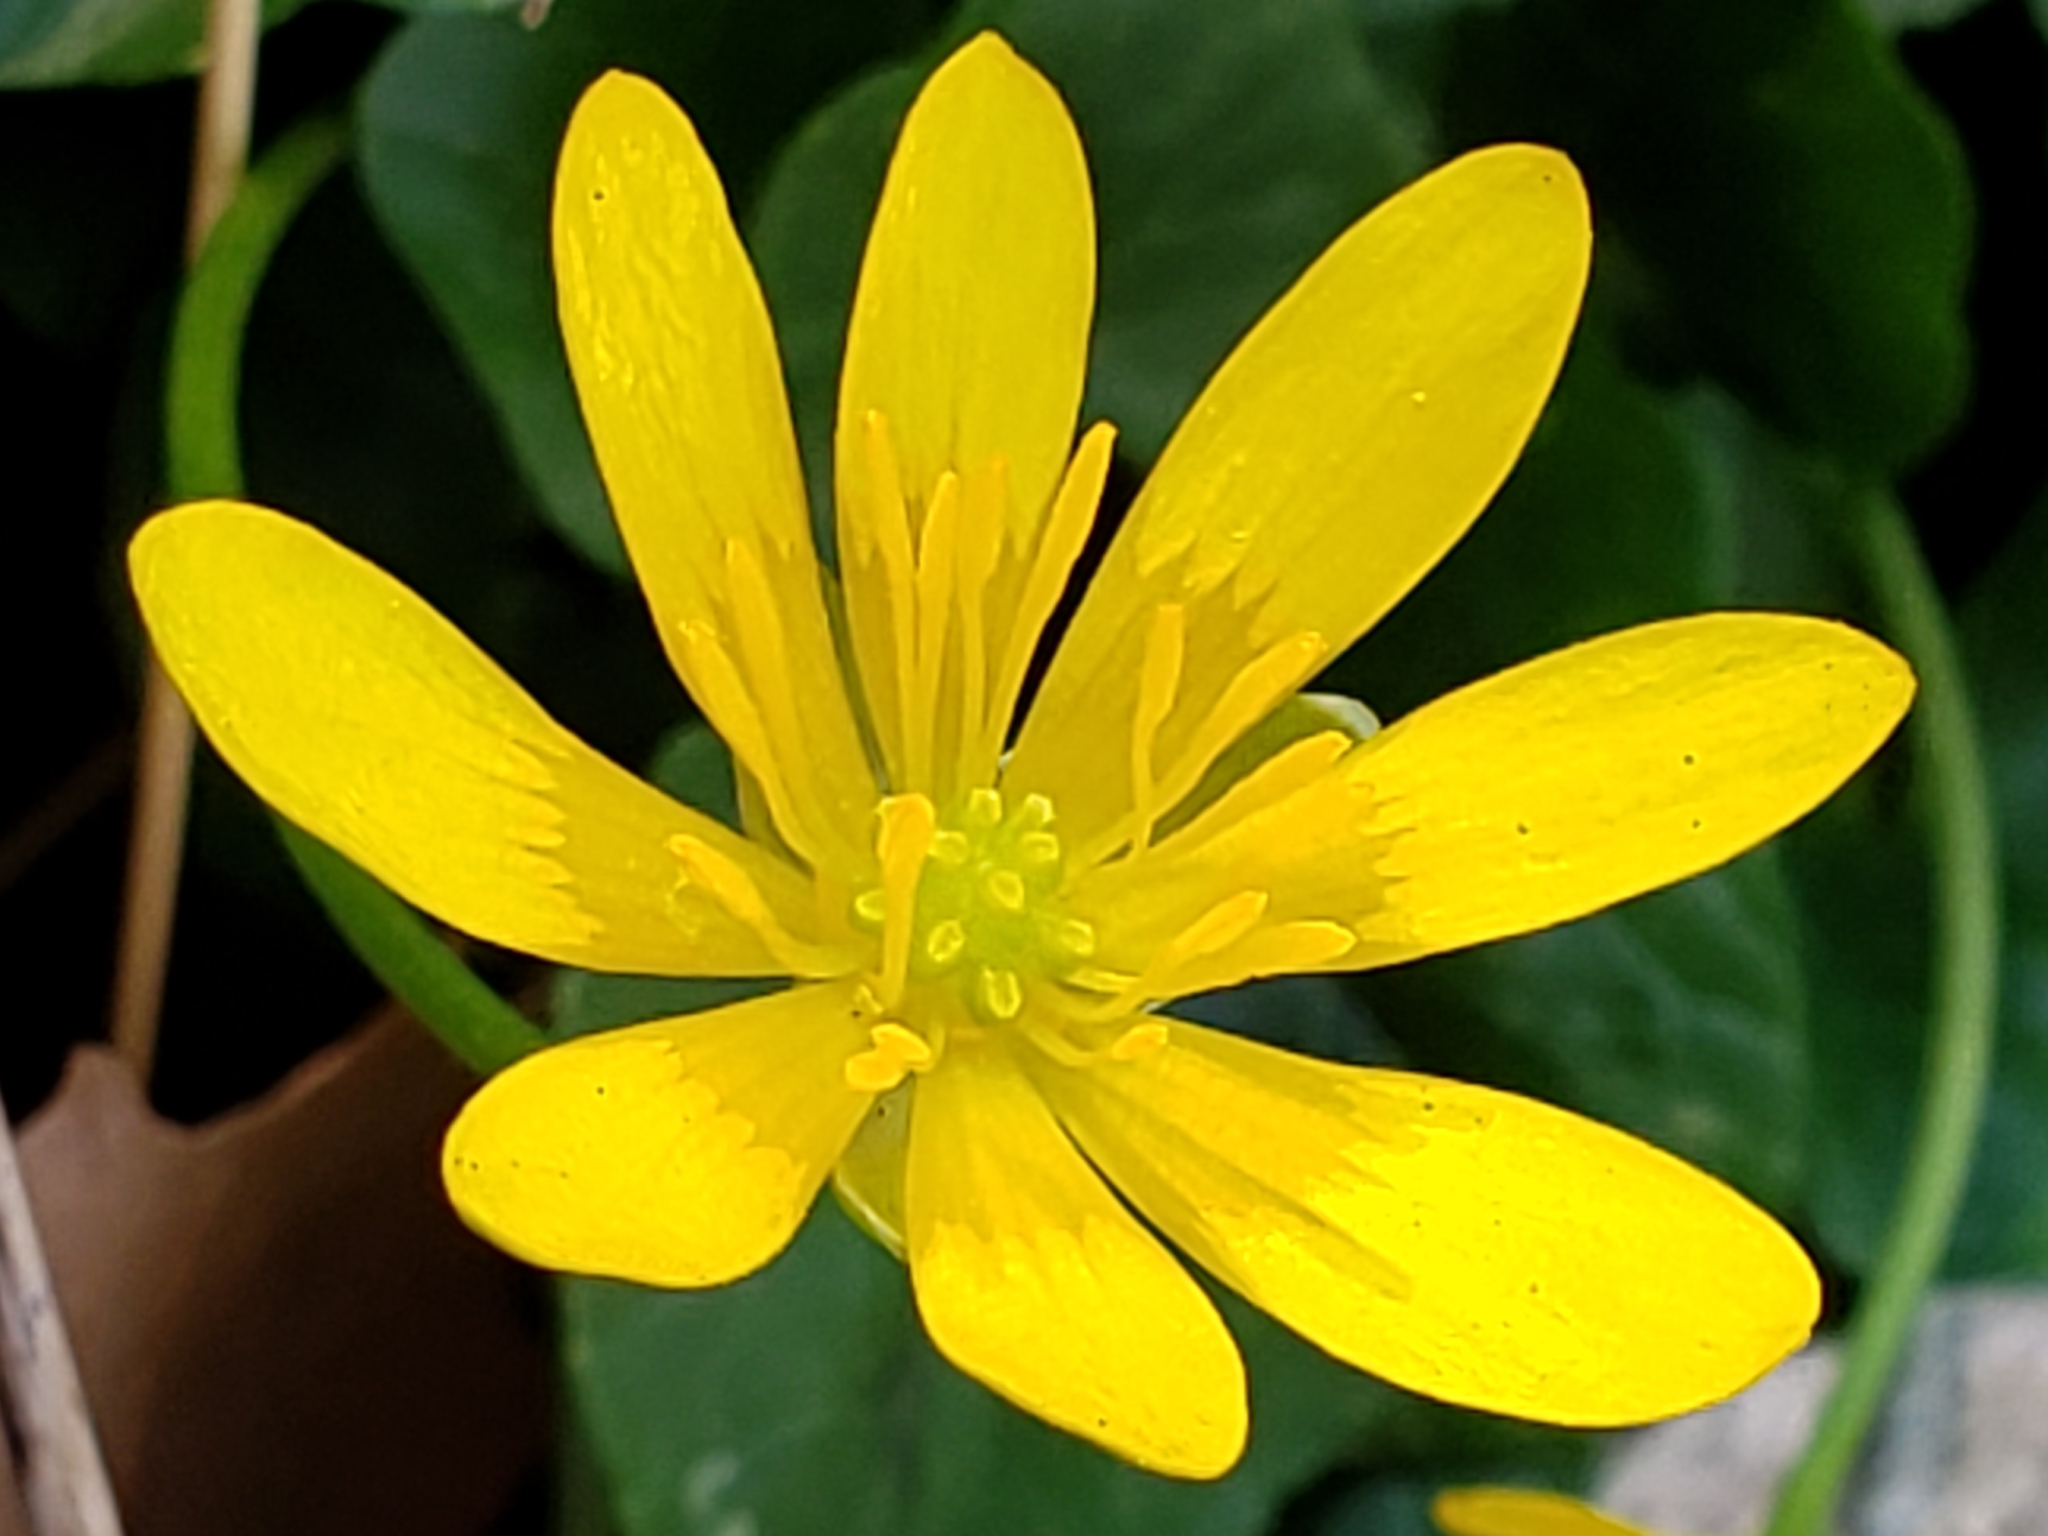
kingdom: Plantae
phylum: Tracheophyta
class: Magnoliopsida
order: Ranunculales
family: Ranunculaceae
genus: Ficaria
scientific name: Ficaria verna
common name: Lesser celandine
